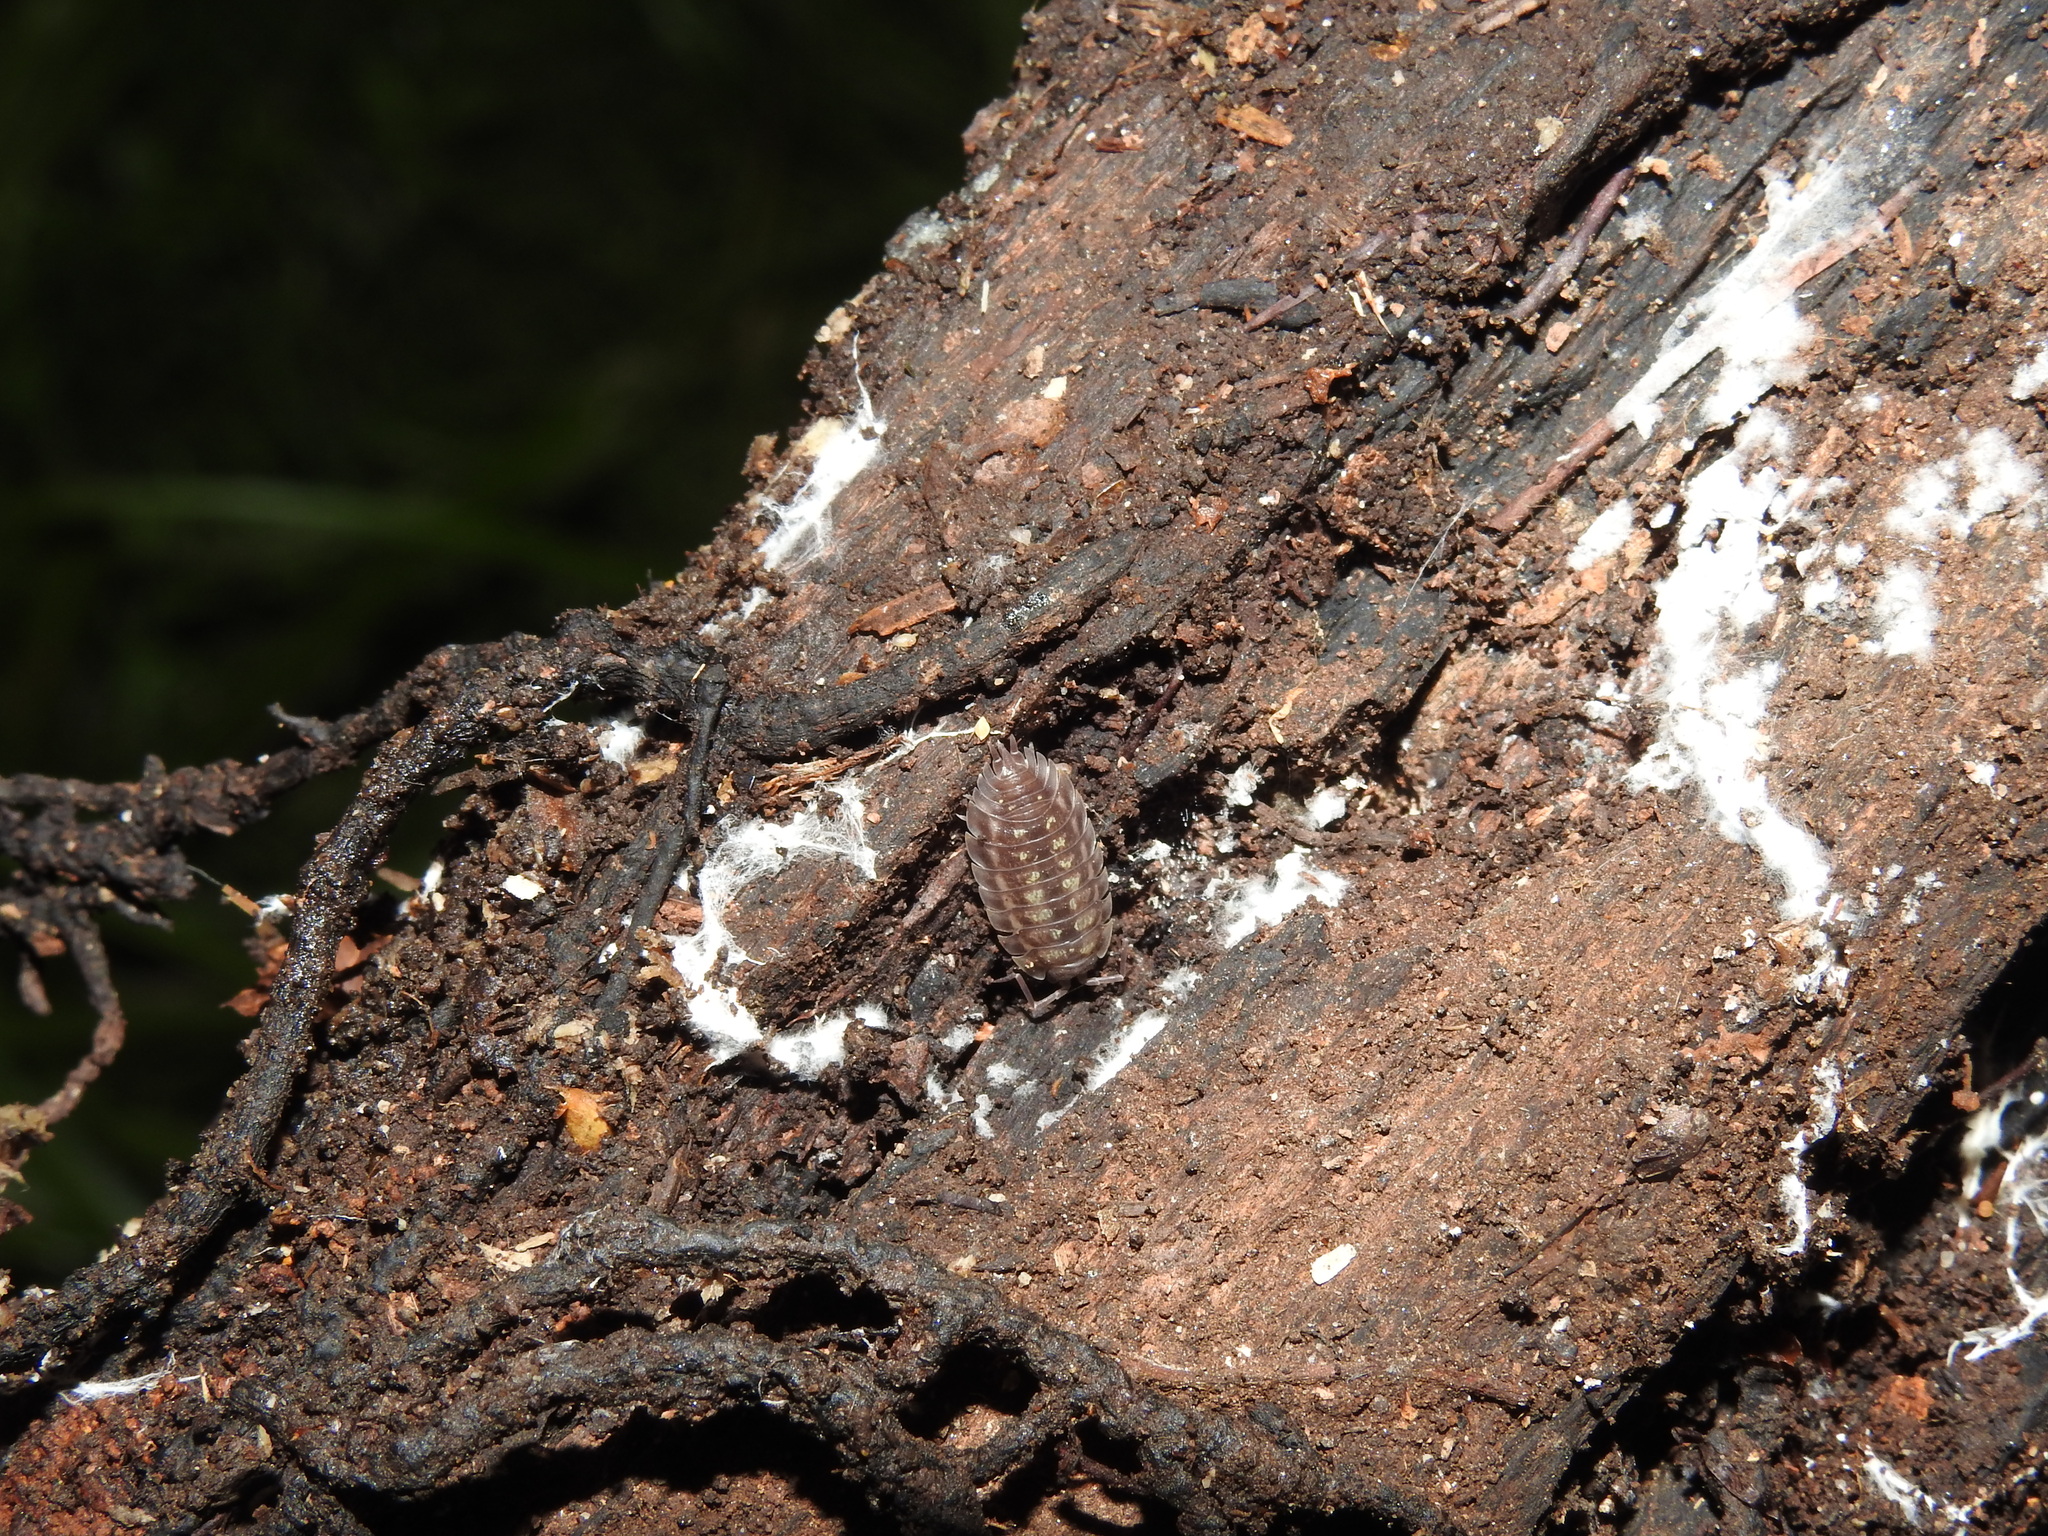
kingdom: Animalia
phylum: Arthropoda
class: Malacostraca
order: Isopoda
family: Oniscidae
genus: Oniscus
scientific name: Oniscus asellus
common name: Common shiny woodlouse
